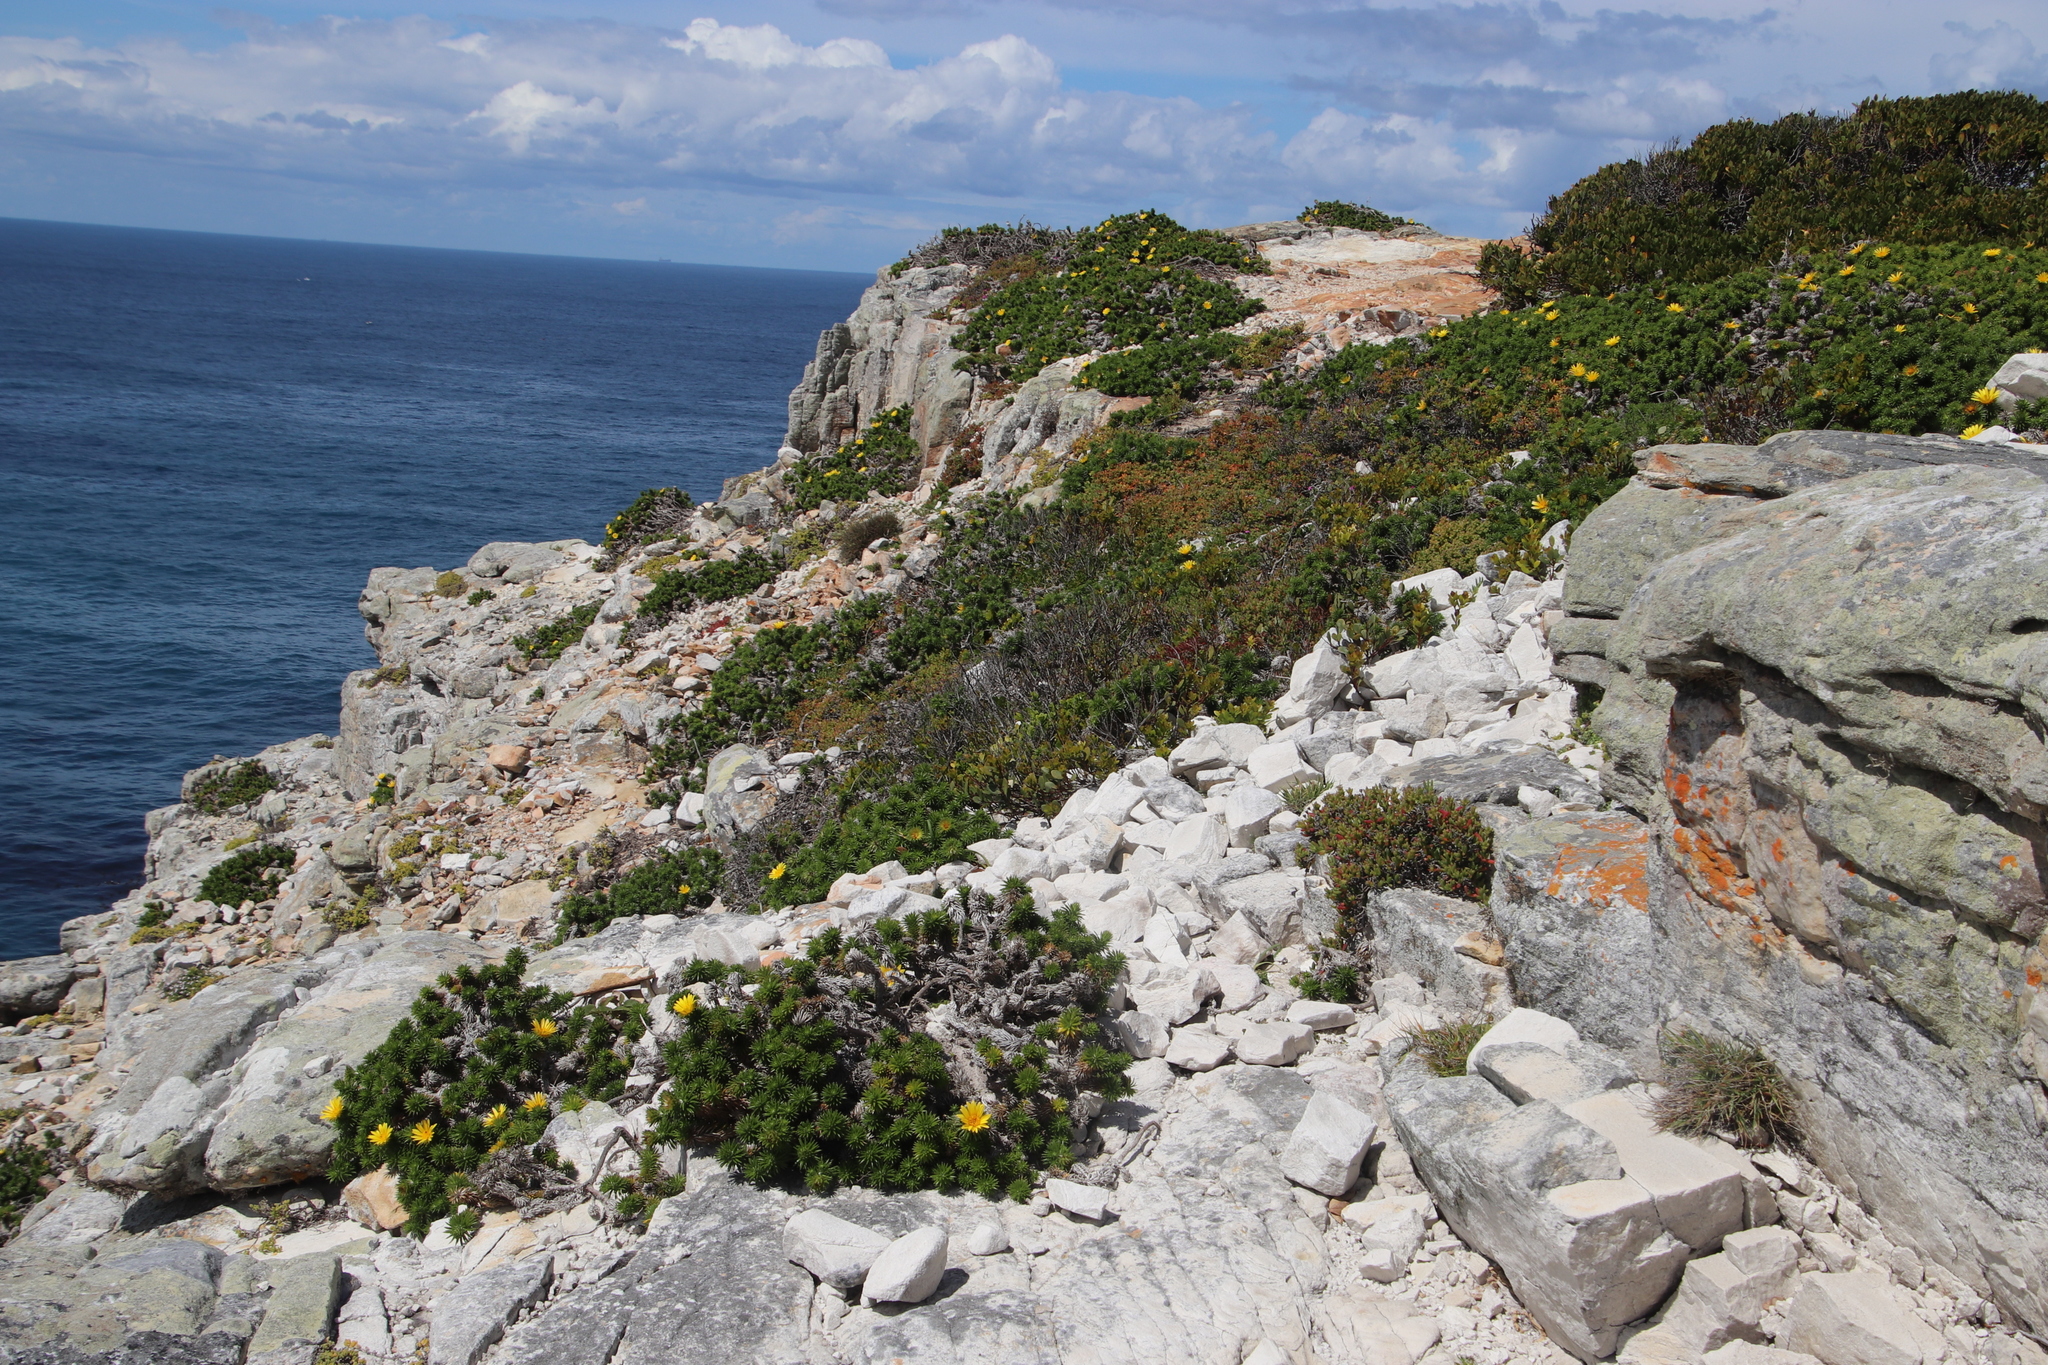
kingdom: Plantae
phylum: Tracheophyta
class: Magnoliopsida
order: Asterales
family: Asteraceae
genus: Cullumia
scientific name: Cullumia squarrosa
